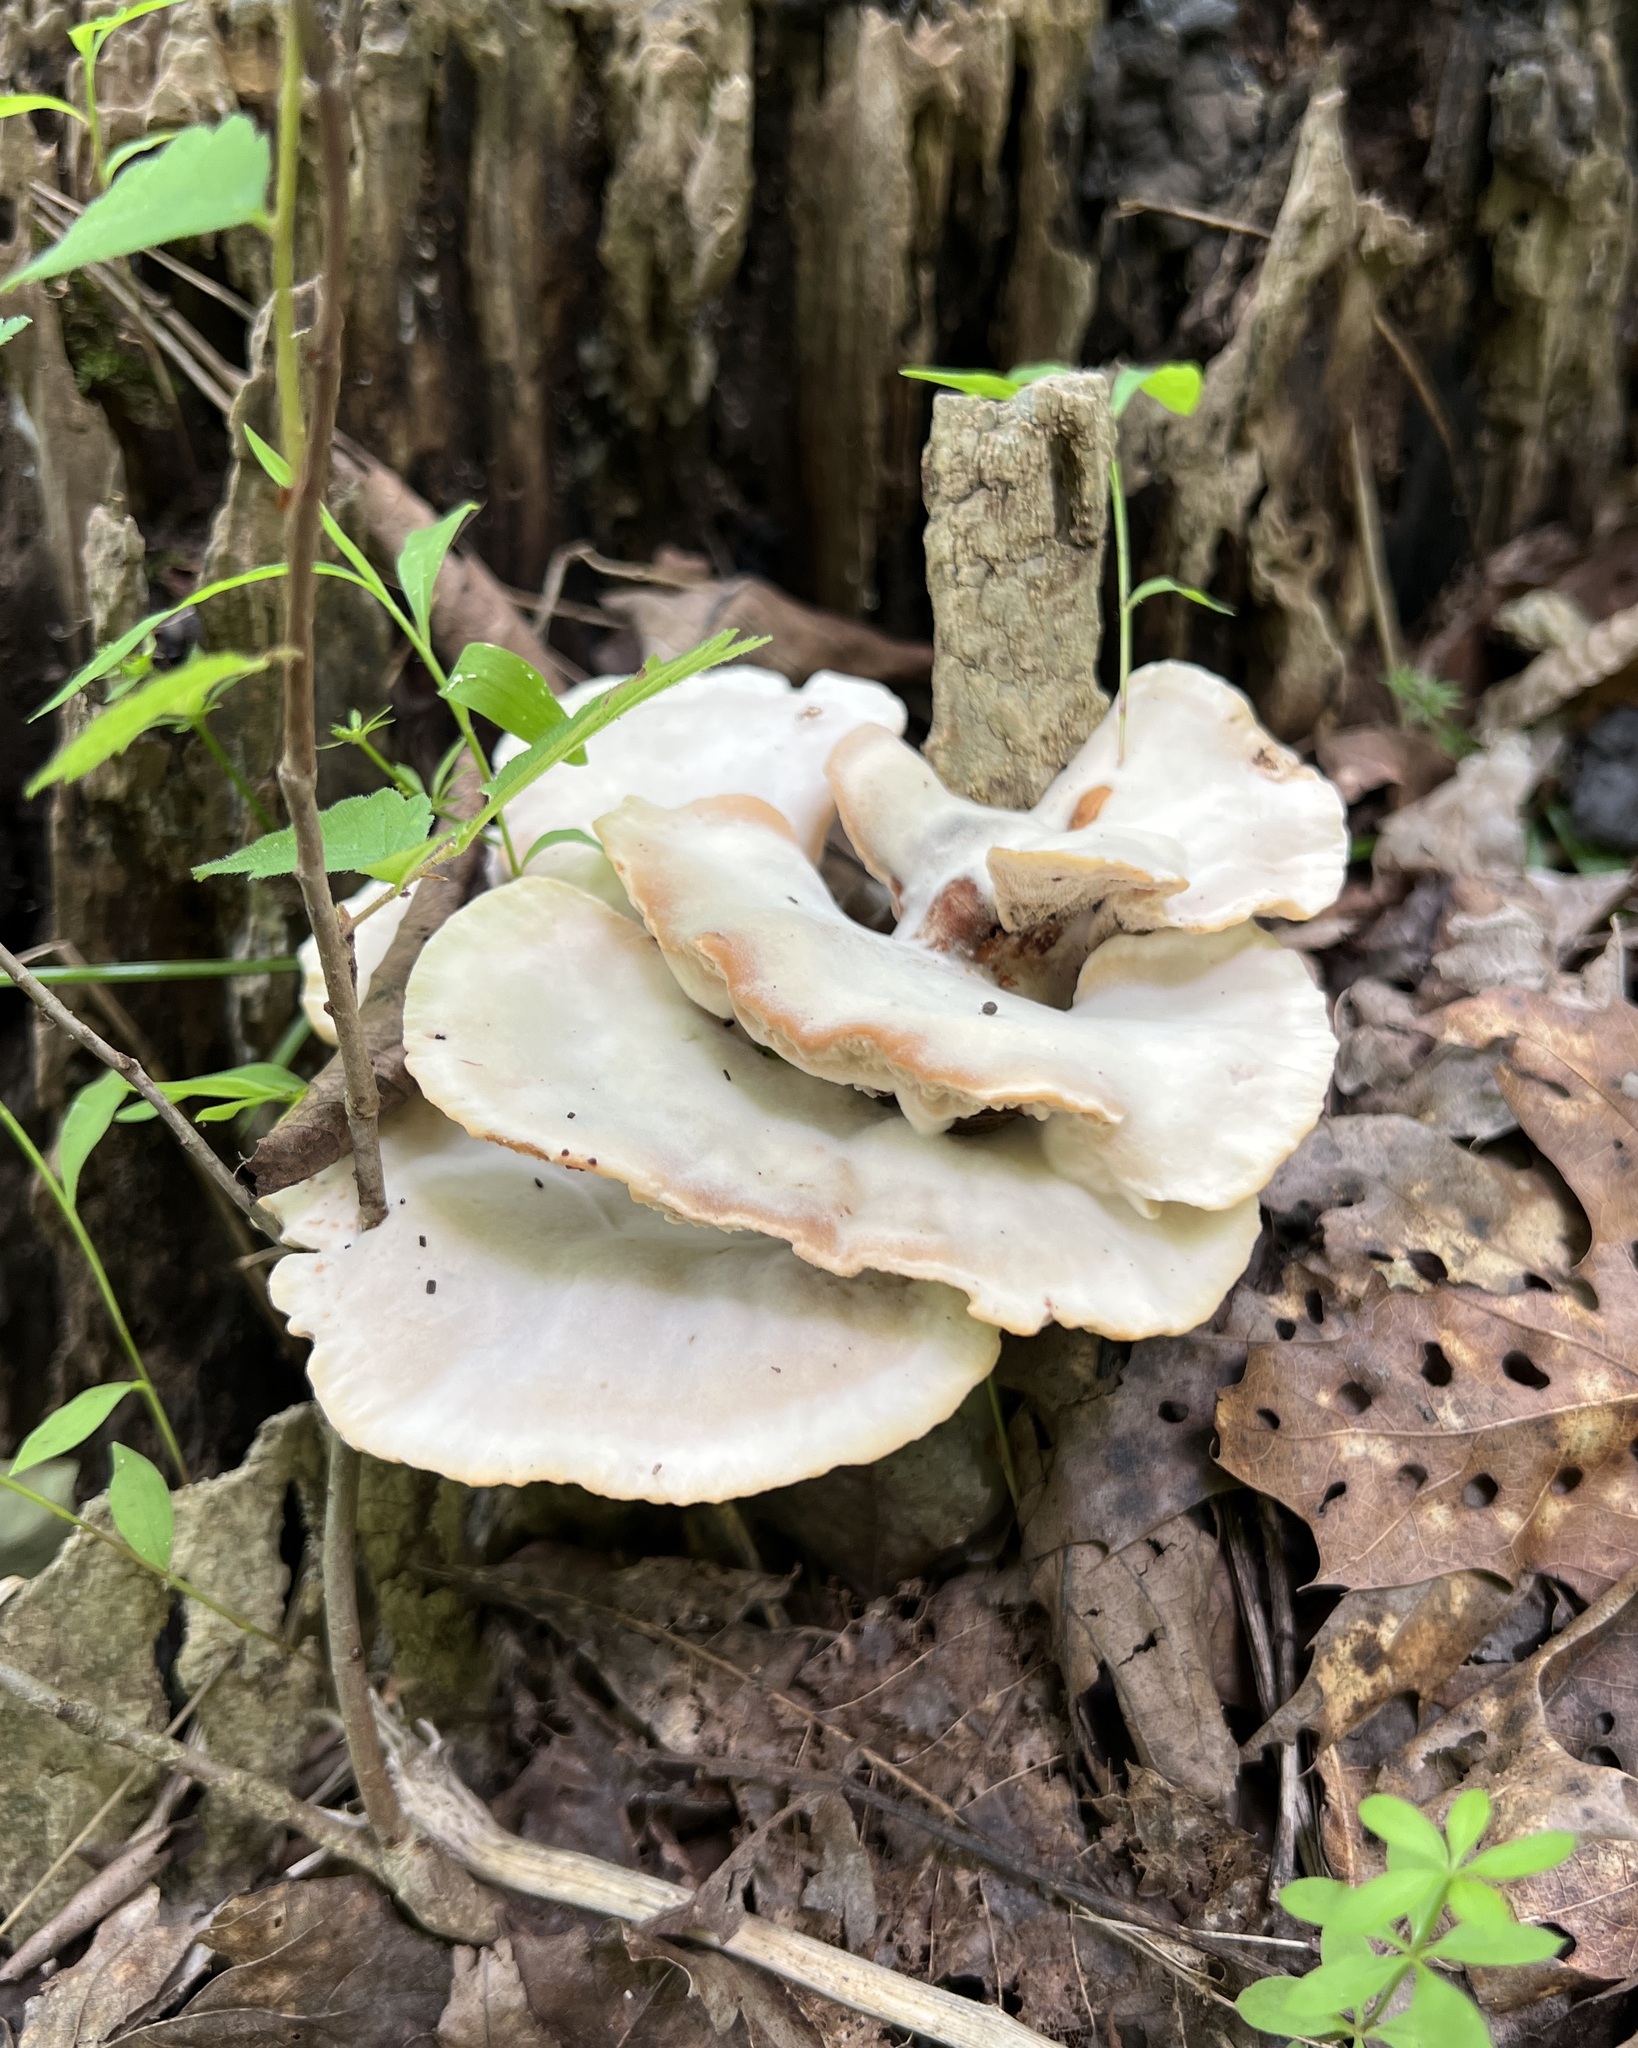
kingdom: Fungi
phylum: Basidiomycota
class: Agaricomycetes
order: Polyporales
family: Podoscyphaceae
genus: Abortiporus
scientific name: Abortiporus biennis
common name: Blushing rosette
